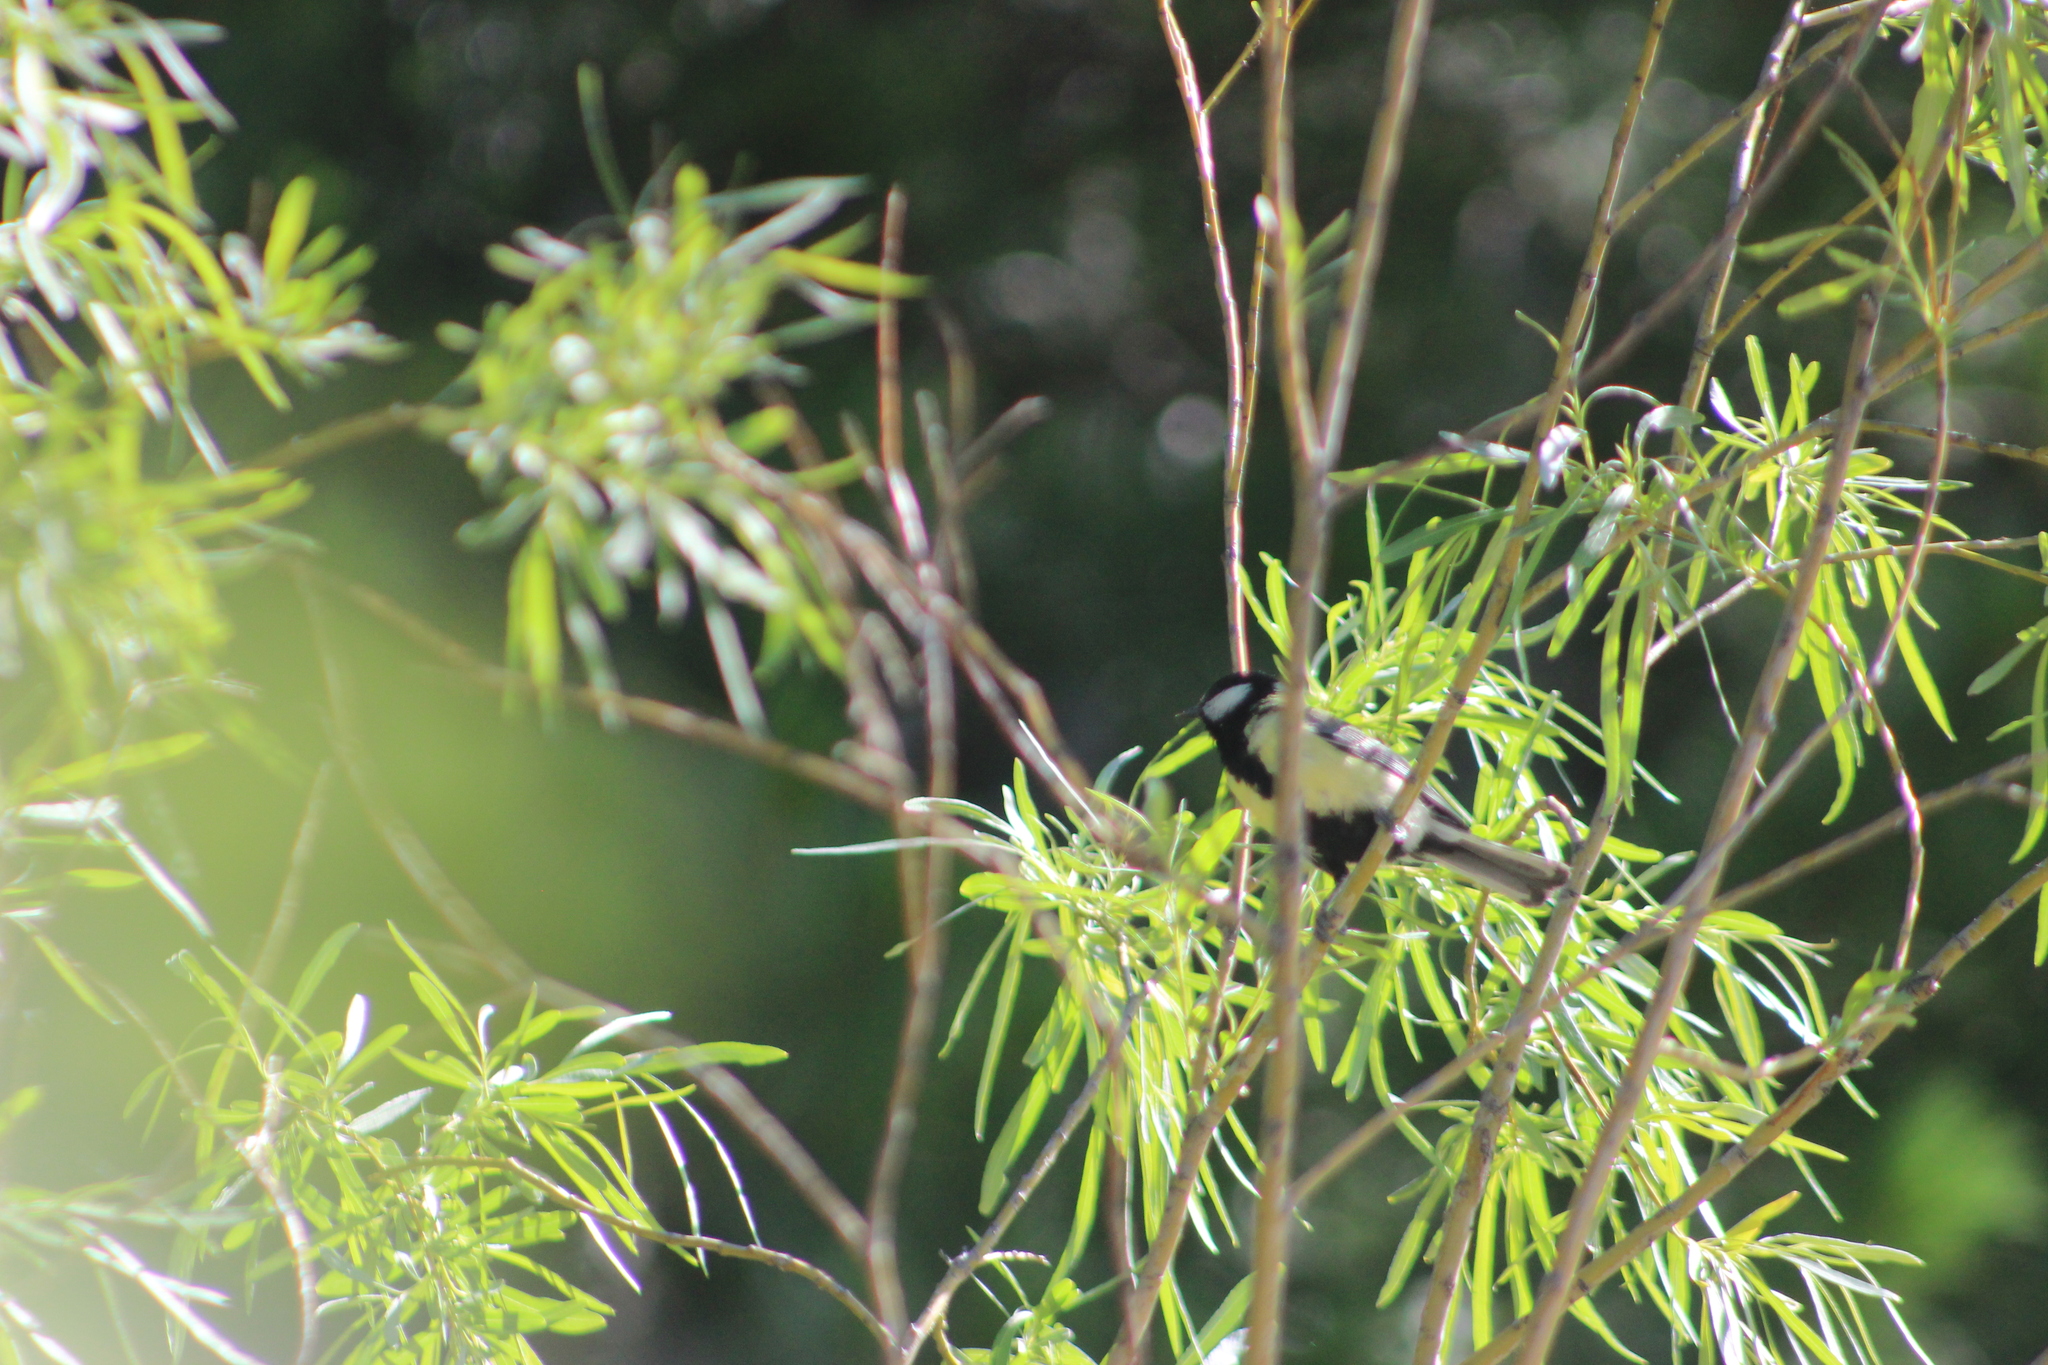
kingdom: Animalia
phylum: Chordata
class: Aves
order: Passeriformes
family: Paridae
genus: Parus
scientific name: Parus major
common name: Great tit
